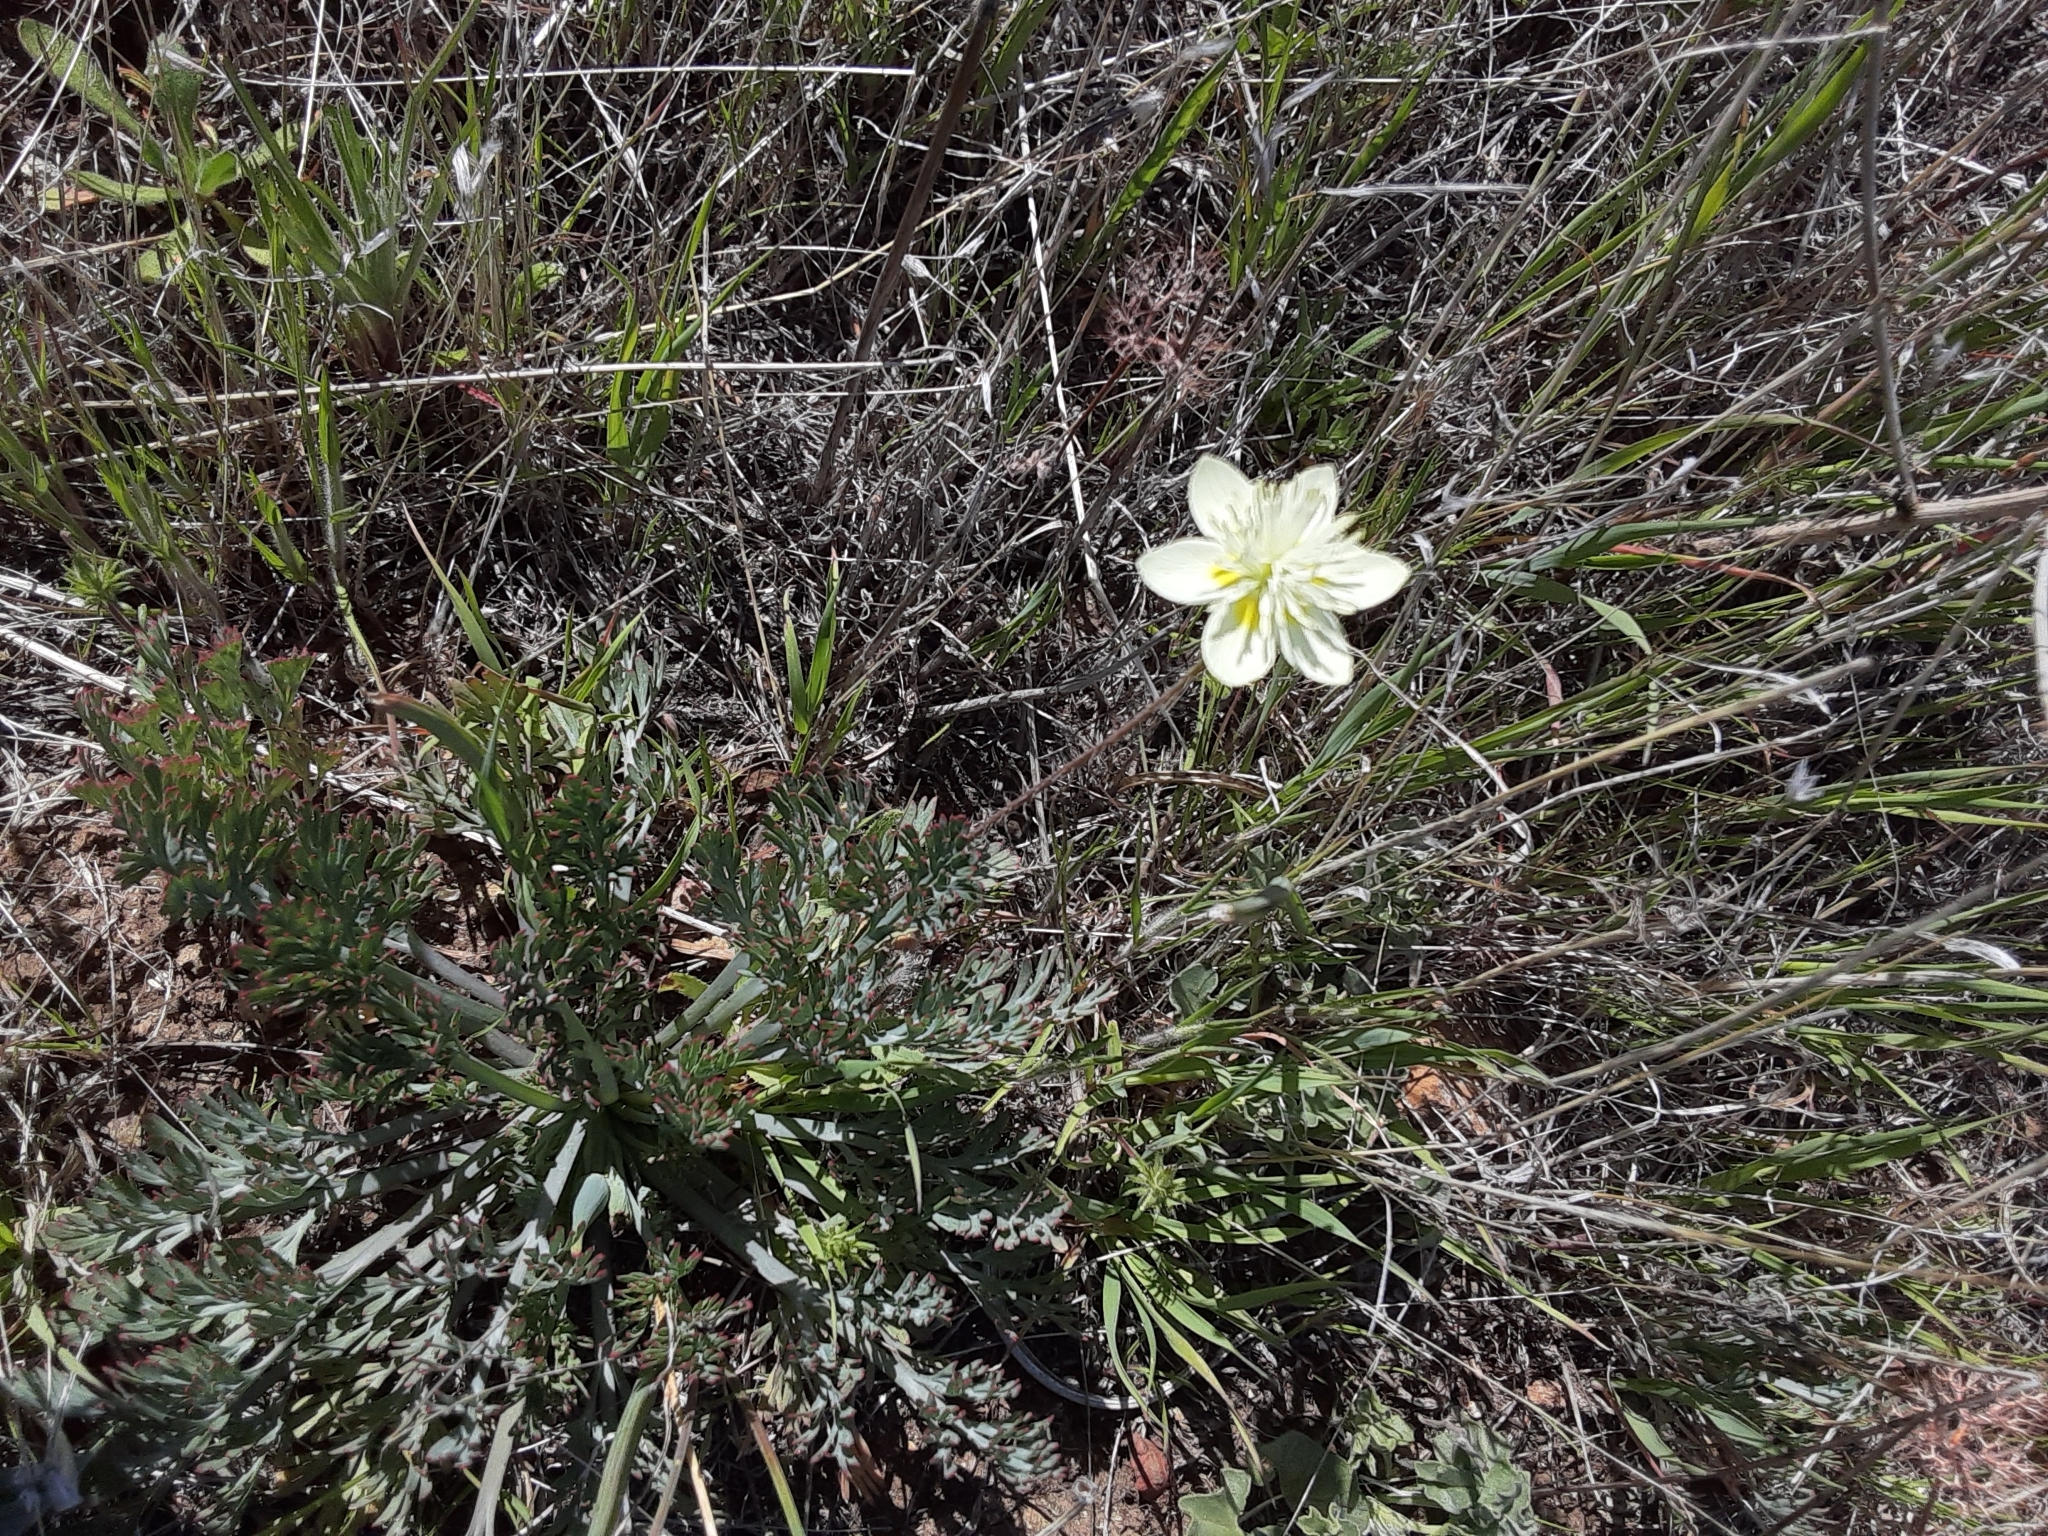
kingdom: Plantae
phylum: Tracheophyta
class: Magnoliopsida
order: Ranunculales
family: Papaveraceae
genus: Platystemon
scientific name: Platystemon californicus
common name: Cream-cups
